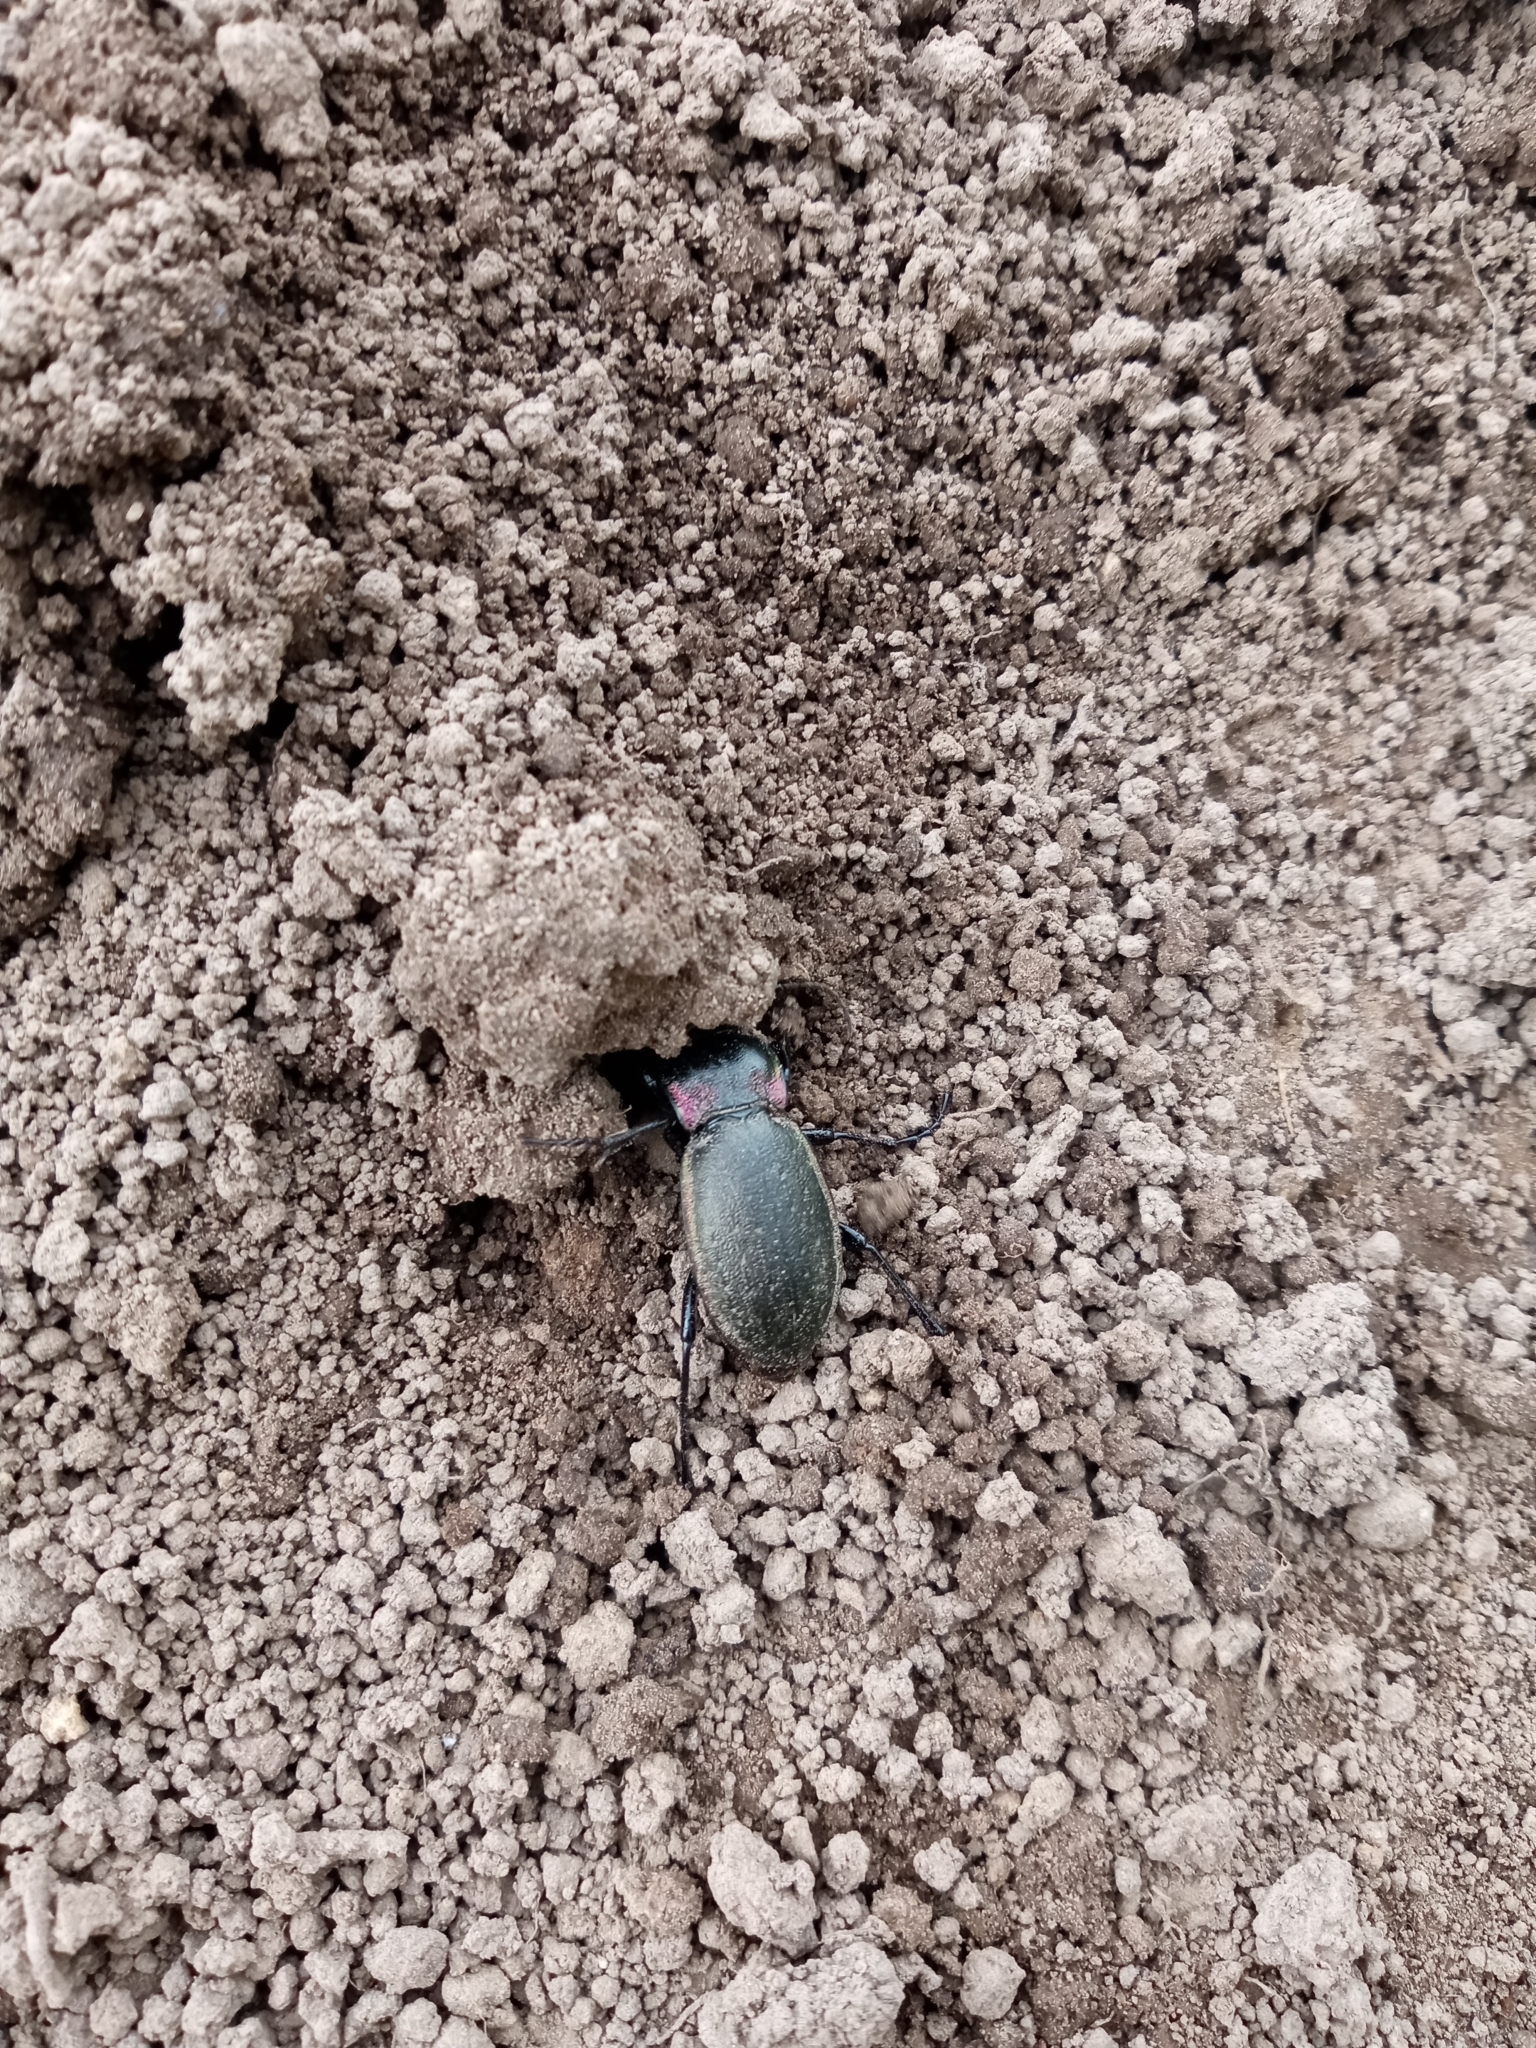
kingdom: Animalia
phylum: Arthropoda
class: Insecta
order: Coleoptera
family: Carabidae
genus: Carabus
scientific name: Carabus nemoralis
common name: European ground beetle
